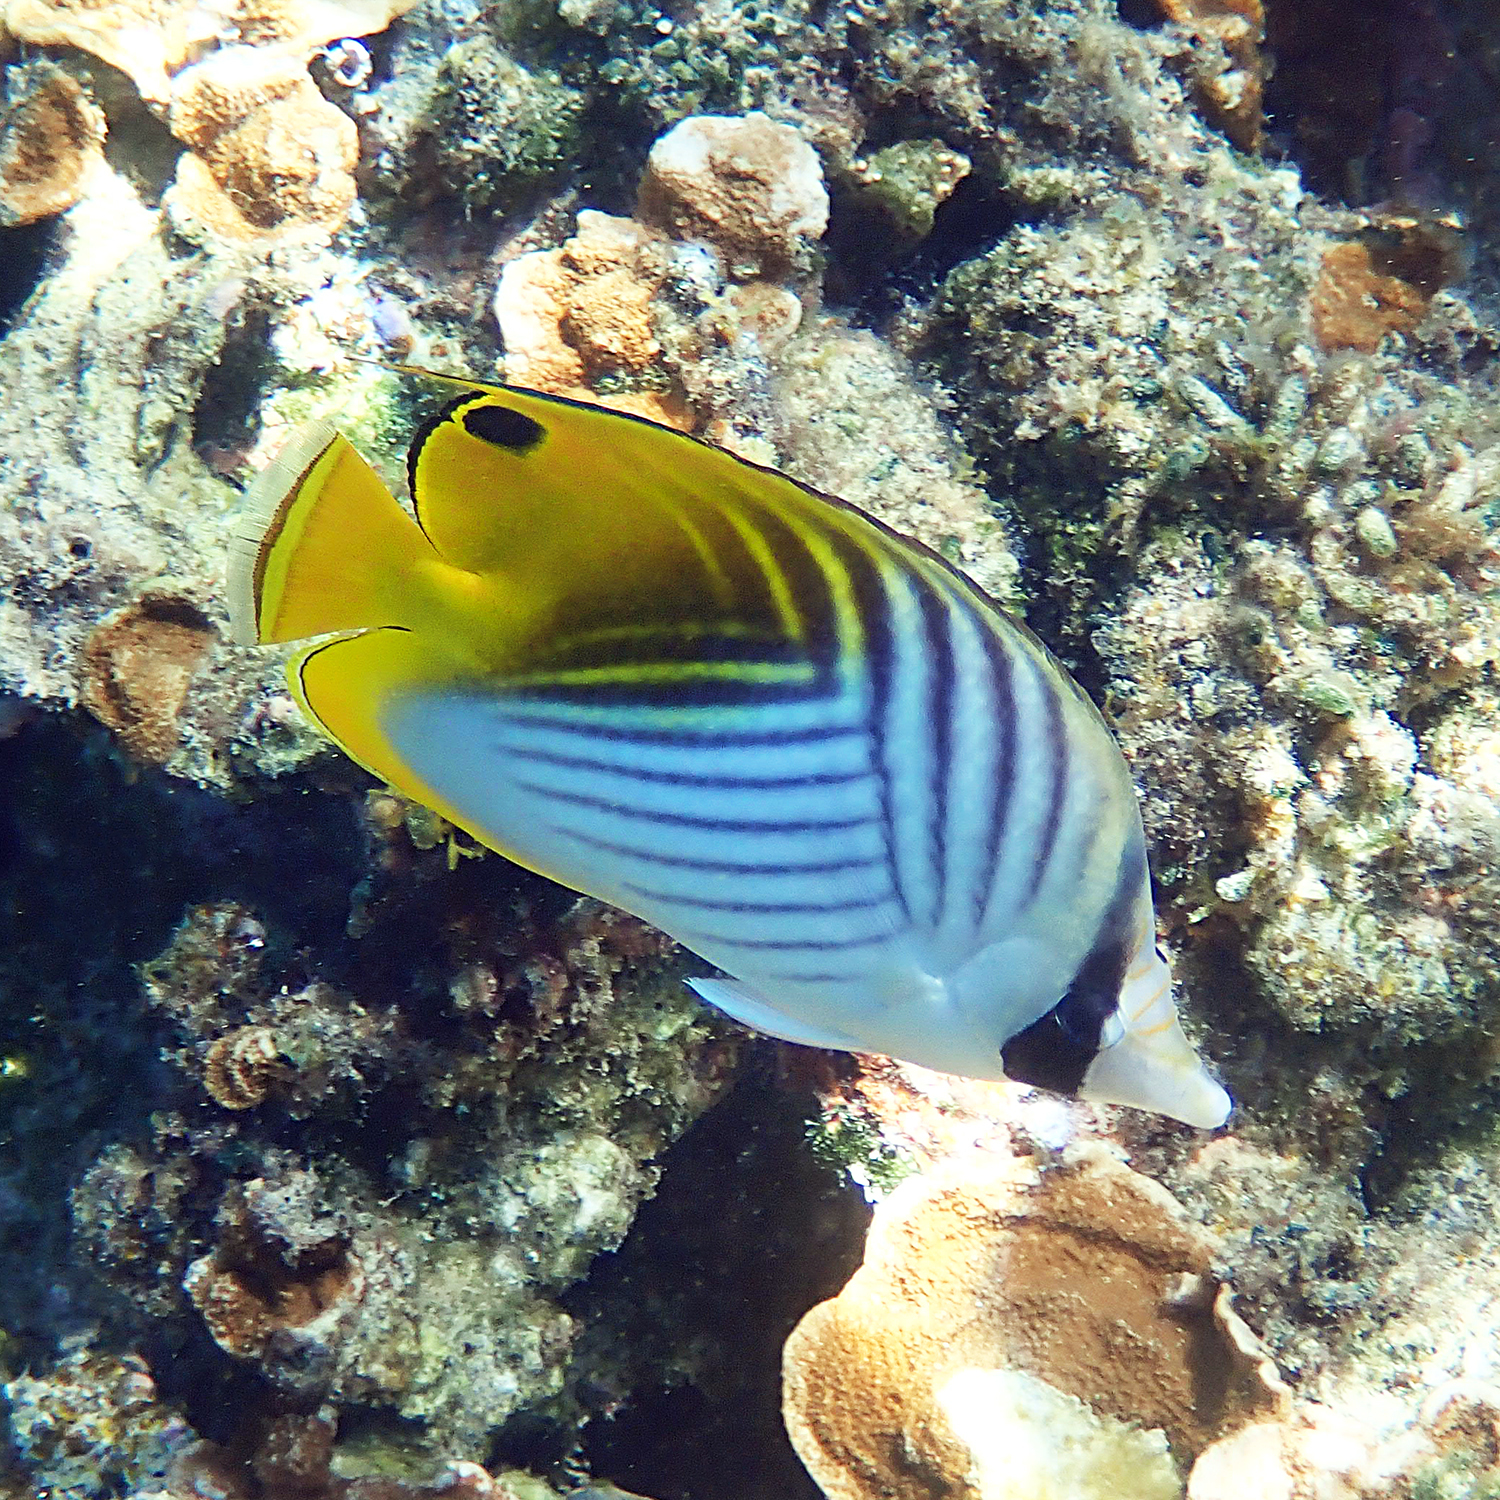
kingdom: Animalia
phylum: Chordata
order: Perciformes
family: Chaetodontidae
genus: Chaetodon
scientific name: Chaetodon auriga
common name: Threadfin butterflyfish
